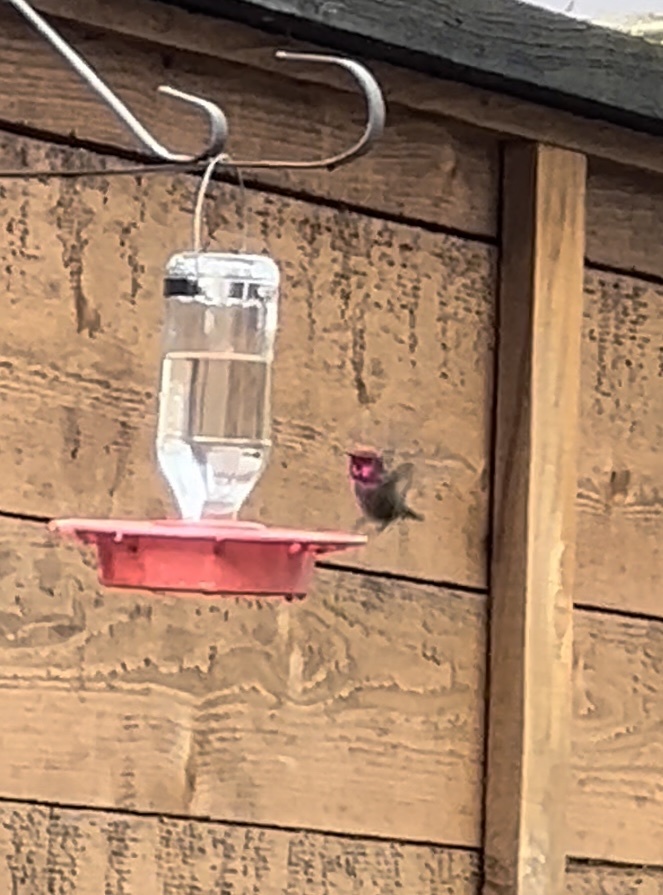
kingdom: Animalia
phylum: Chordata
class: Aves
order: Apodiformes
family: Trochilidae
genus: Calypte
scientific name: Calypte anna
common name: Anna's hummingbird
